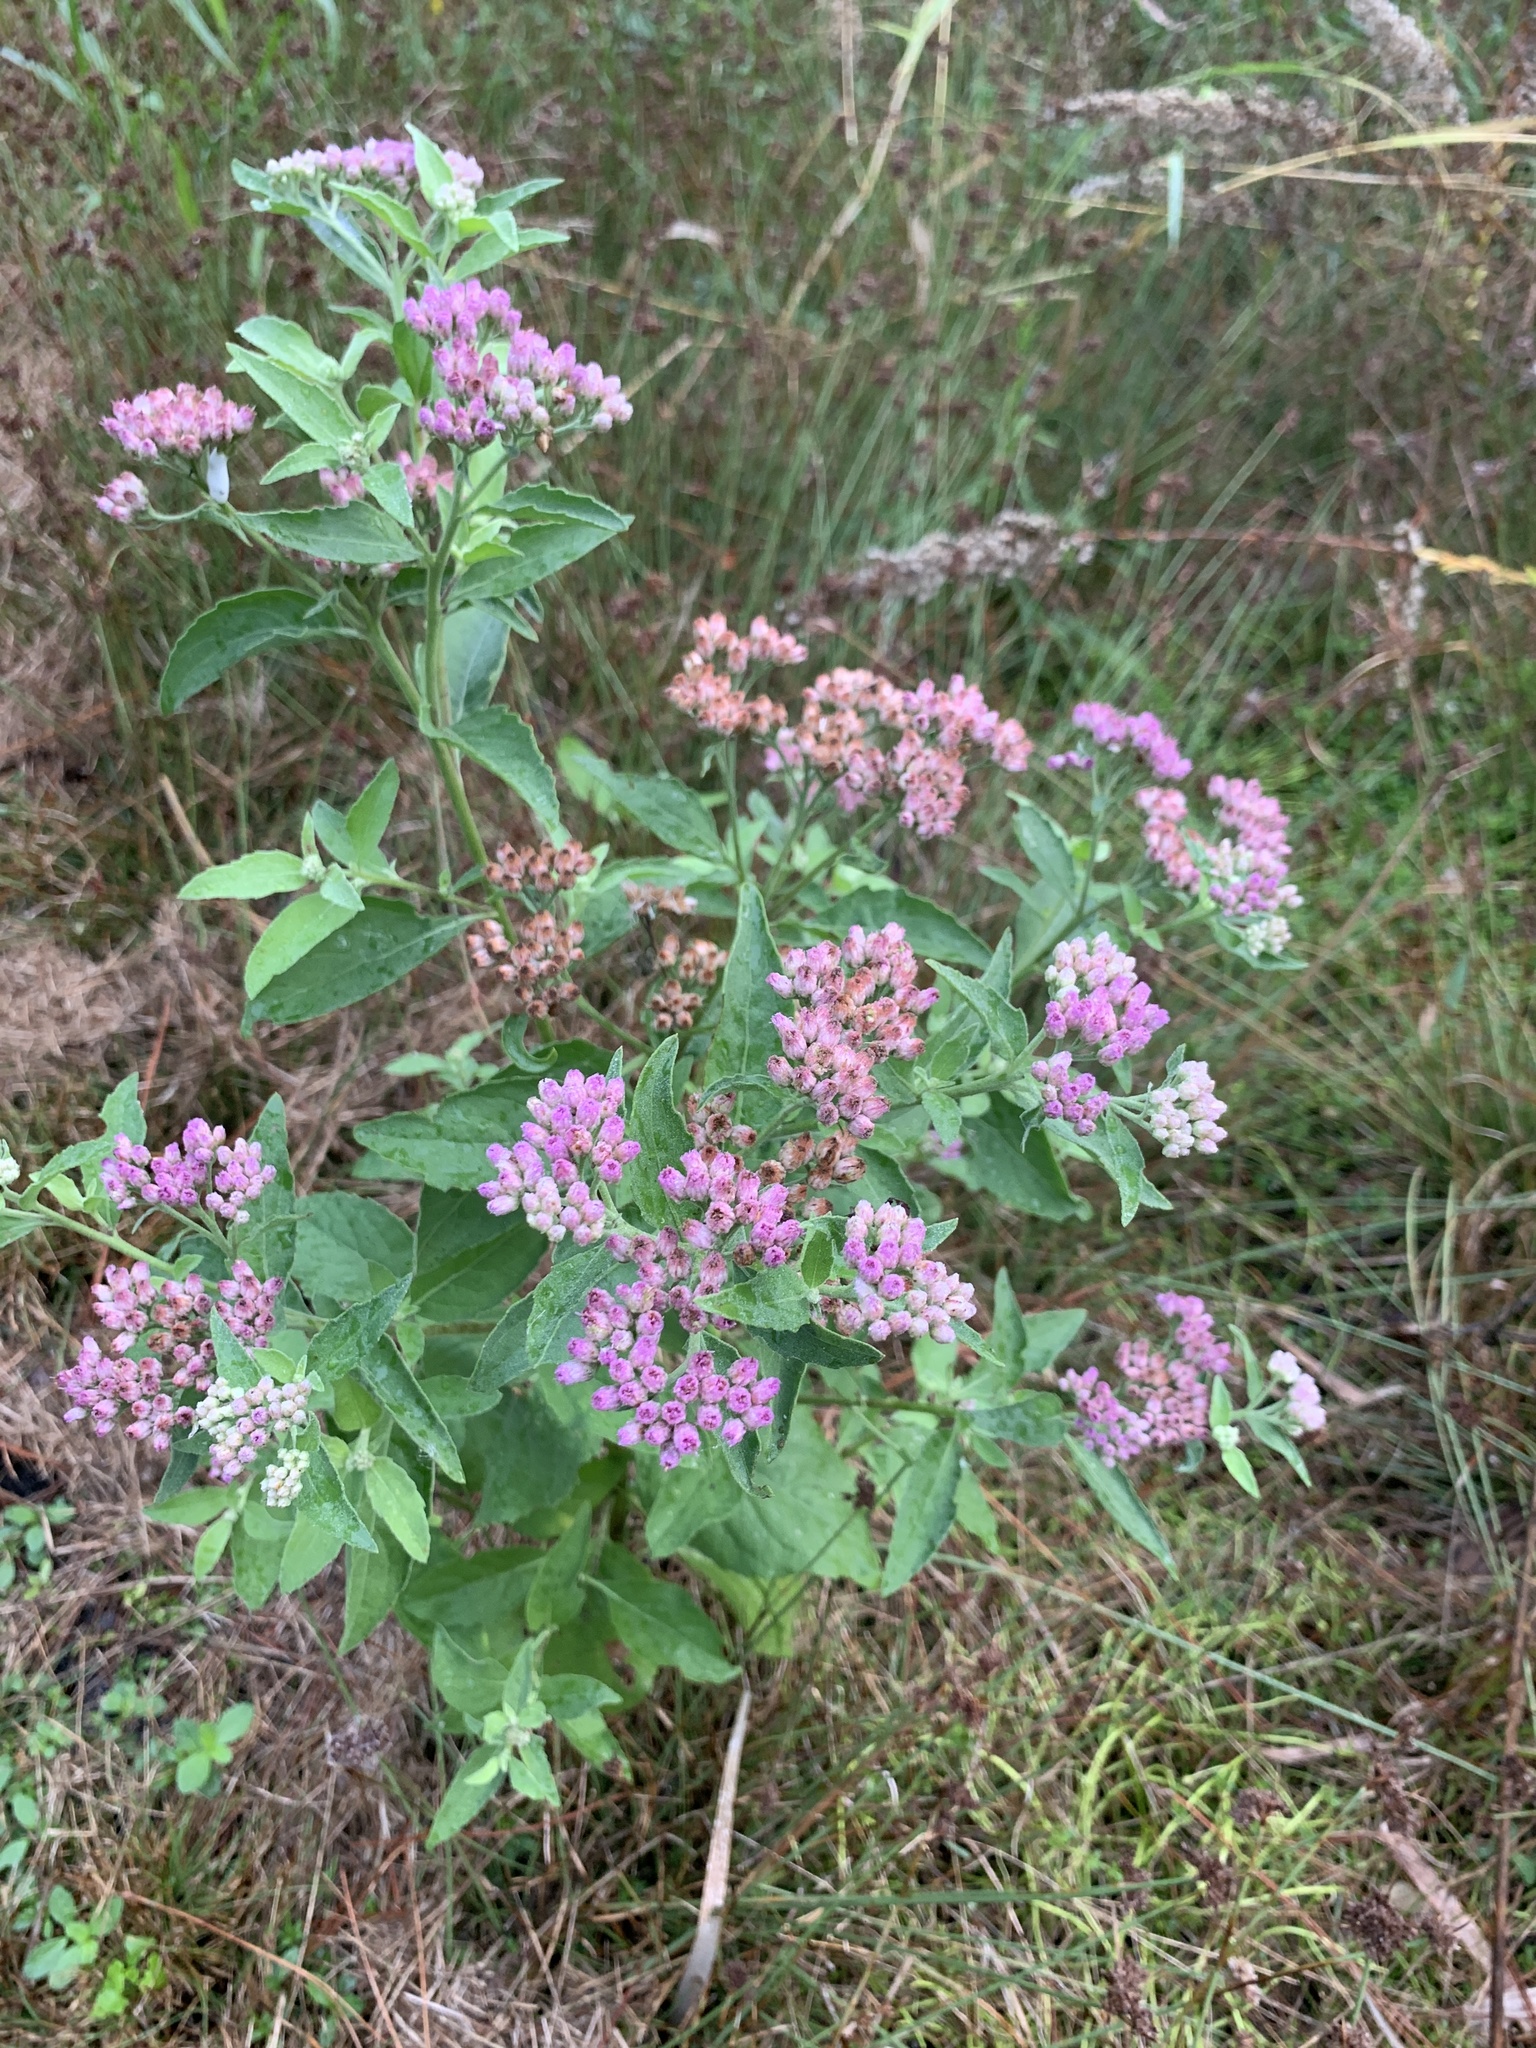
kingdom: Plantae
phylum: Tracheophyta
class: Magnoliopsida
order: Asterales
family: Asteraceae
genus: Pluchea
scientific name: Pluchea odorata
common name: Saltmarsh fleabane
